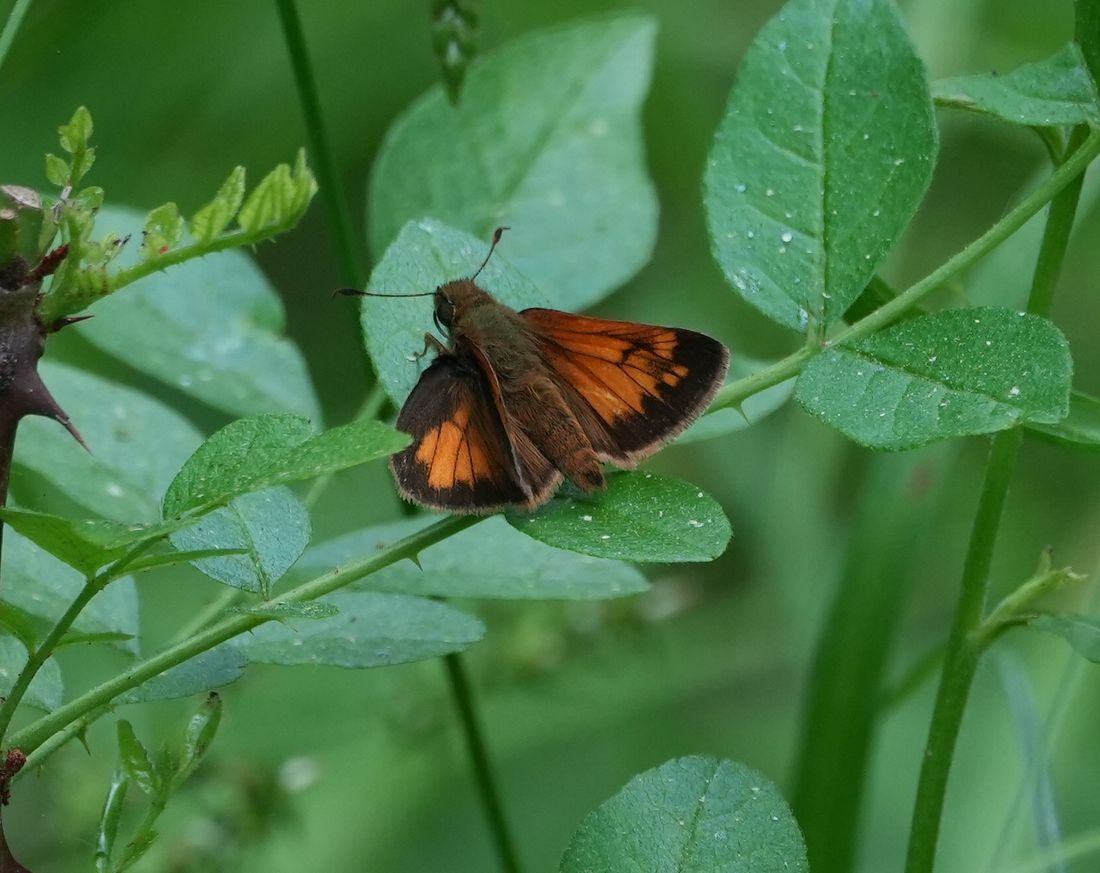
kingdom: Animalia
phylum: Arthropoda
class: Insecta
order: Lepidoptera
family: Hesperiidae
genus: Lon
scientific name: Lon hobomok
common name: Hobomok skipper
